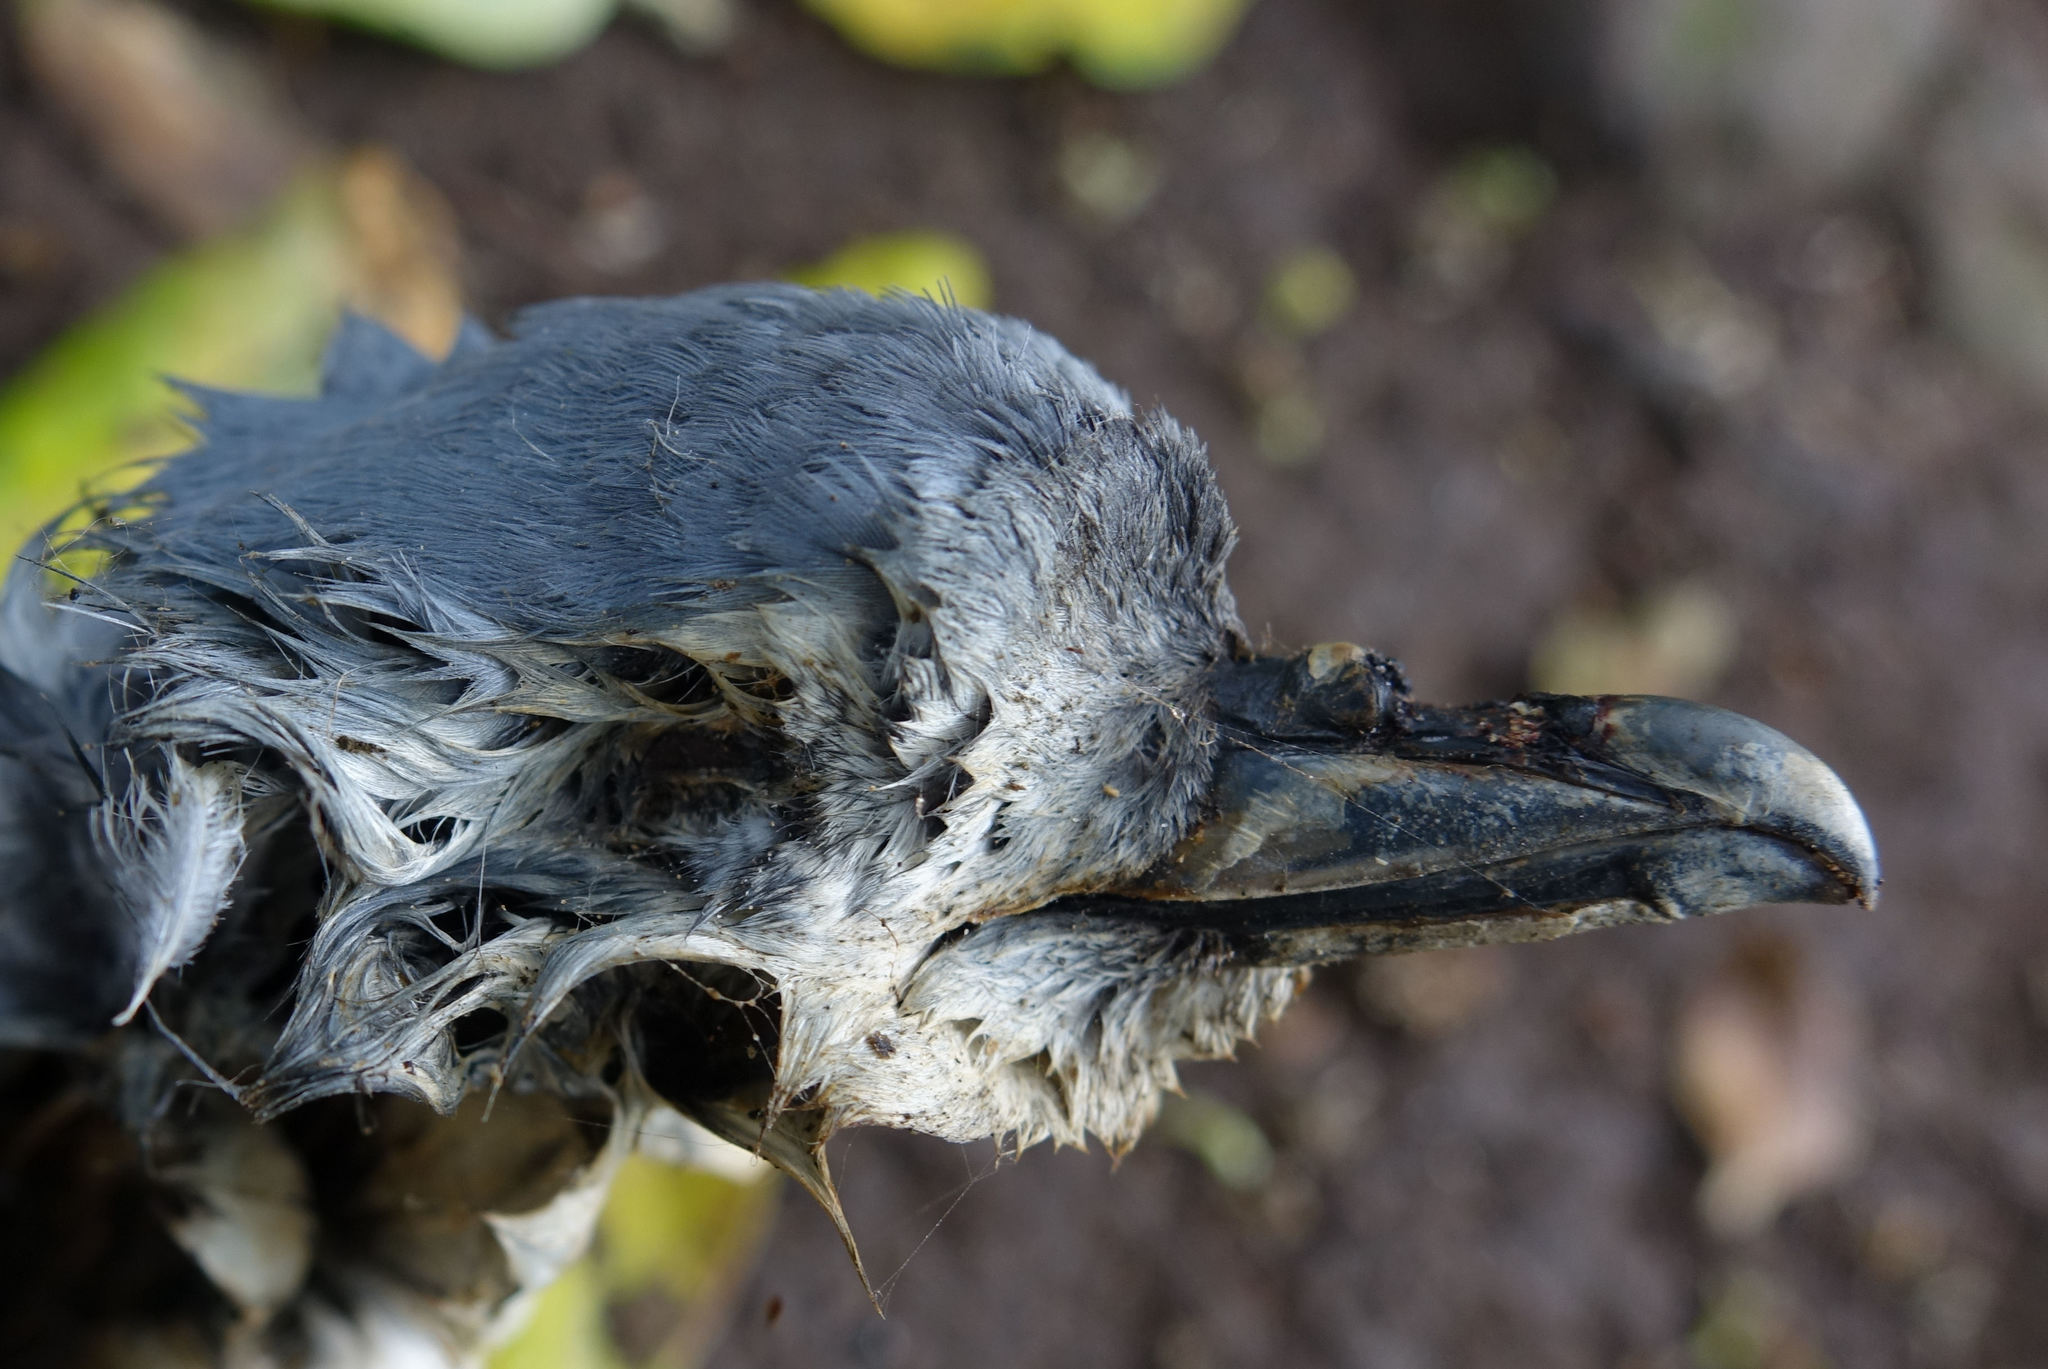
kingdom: Animalia
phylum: Chordata
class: Aves
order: Procellariiformes
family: Procellariidae
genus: Pachyptila
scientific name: Pachyptila turtur
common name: Fairy prion
